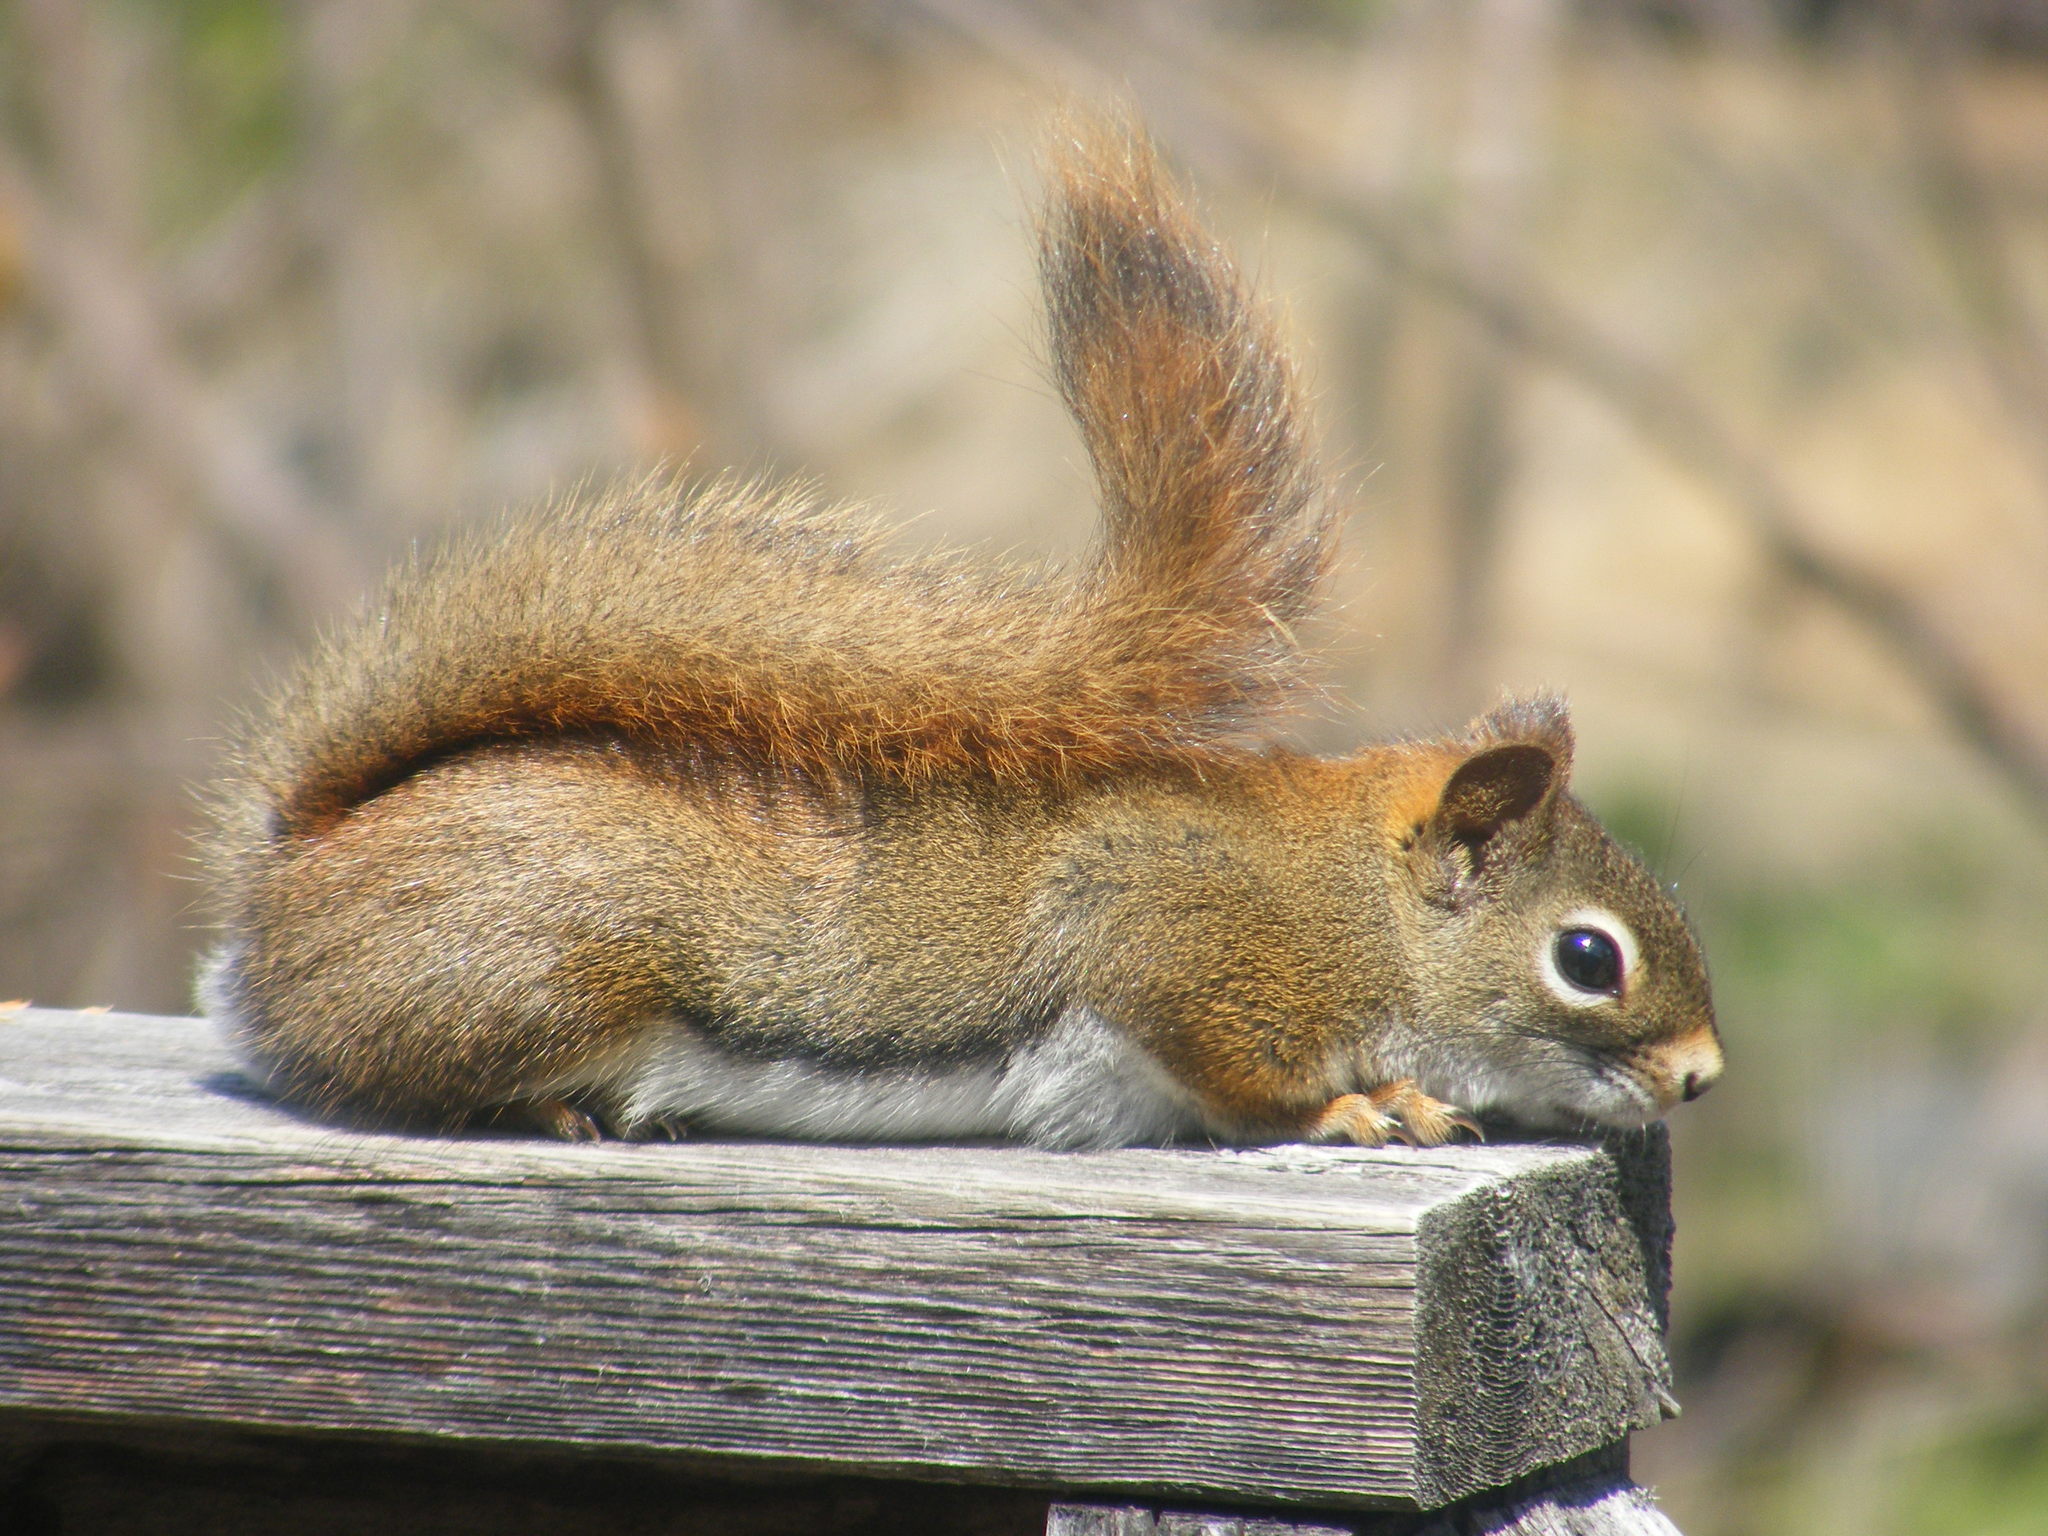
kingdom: Animalia
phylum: Chordata
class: Mammalia
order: Rodentia
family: Sciuridae
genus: Tamiasciurus
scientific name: Tamiasciurus hudsonicus
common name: Red squirrel
